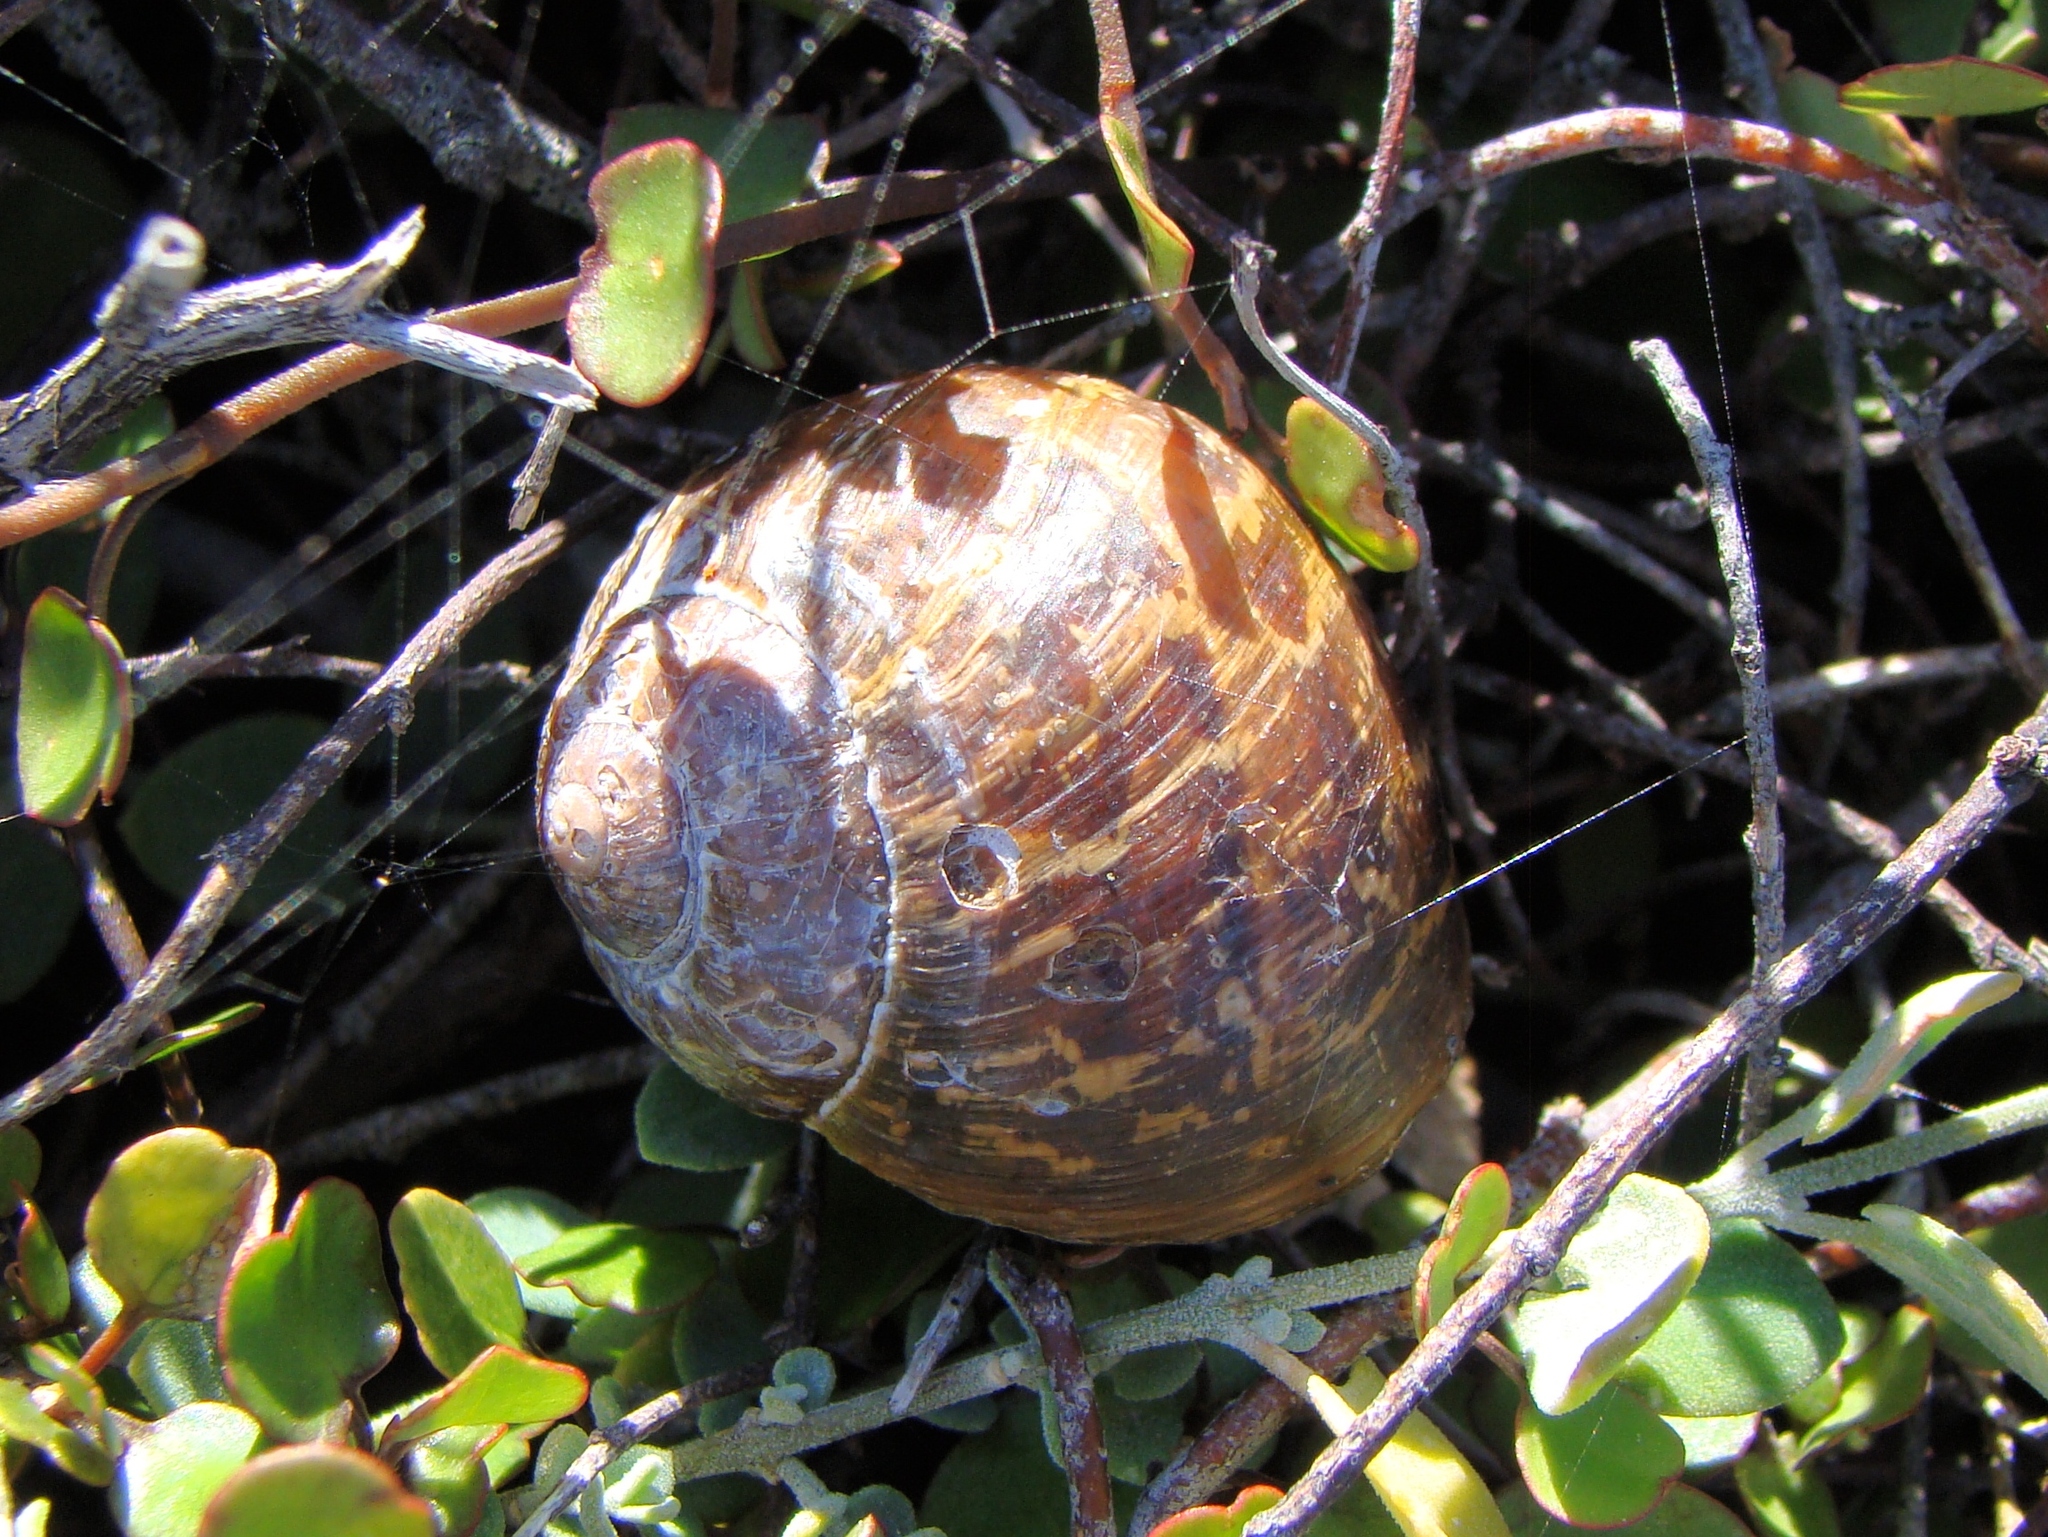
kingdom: Animalia
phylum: Mollusca
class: Gastropoda
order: Stylommatophora
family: Helicidae
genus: Cornu
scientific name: Cornu aspersum
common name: Brown garden snail
